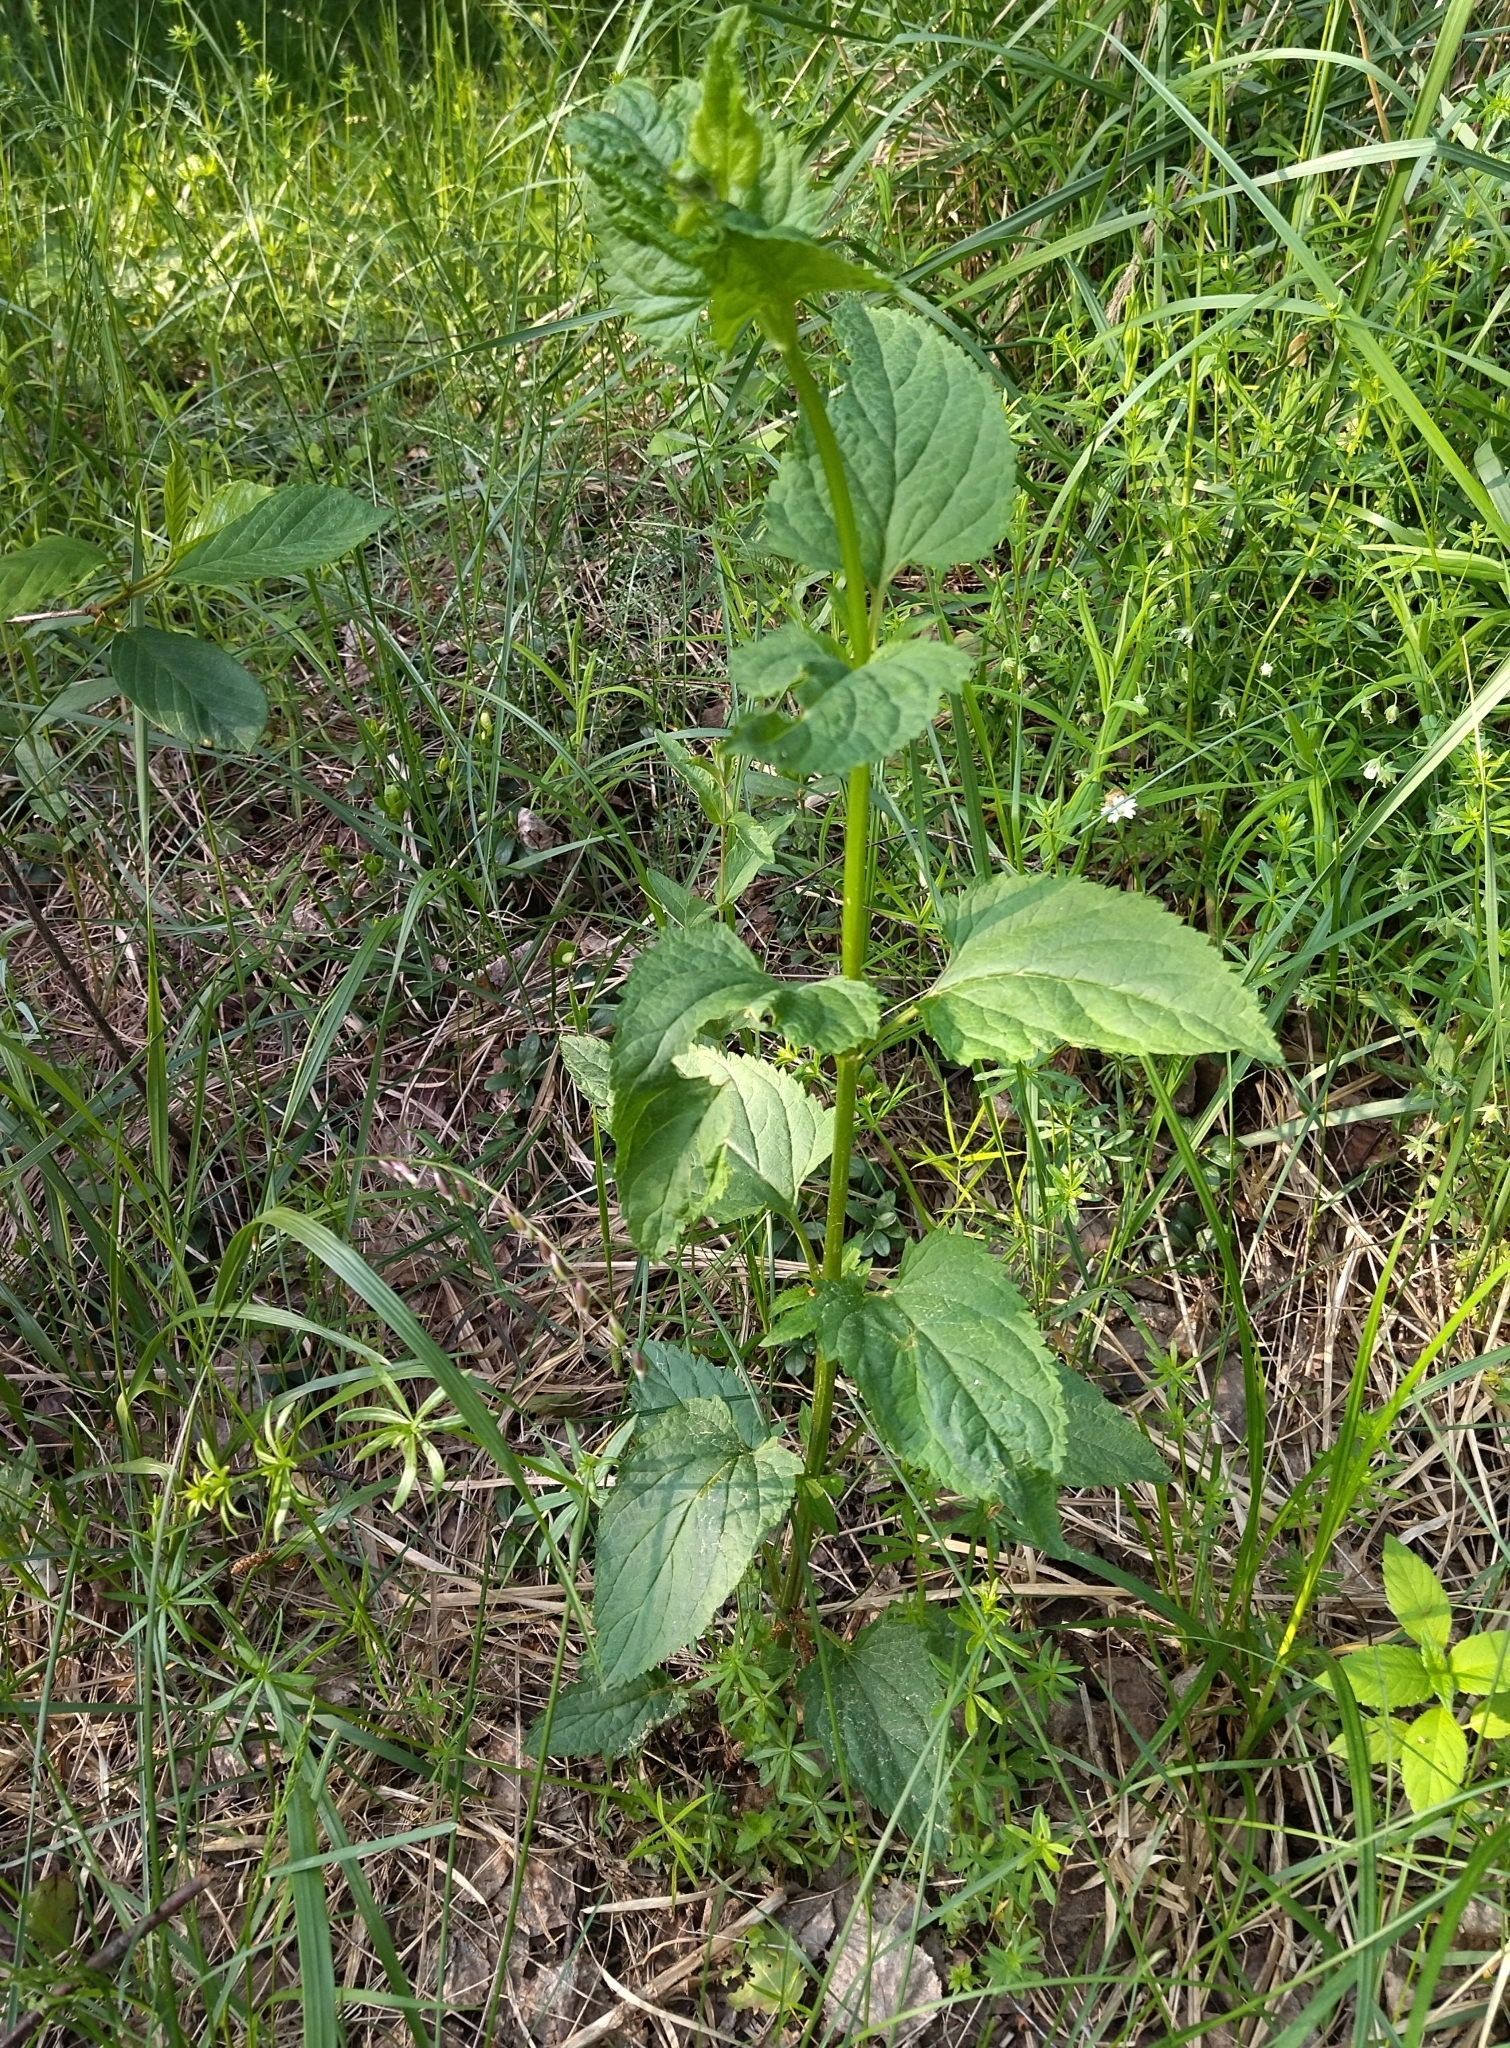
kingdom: Plantae
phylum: Tracheophyta
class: Magnoliopsida
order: Lamiales
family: Scrophulariaceae
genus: Scrophularia
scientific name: Scrophularia nodosa
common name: Common figwort
